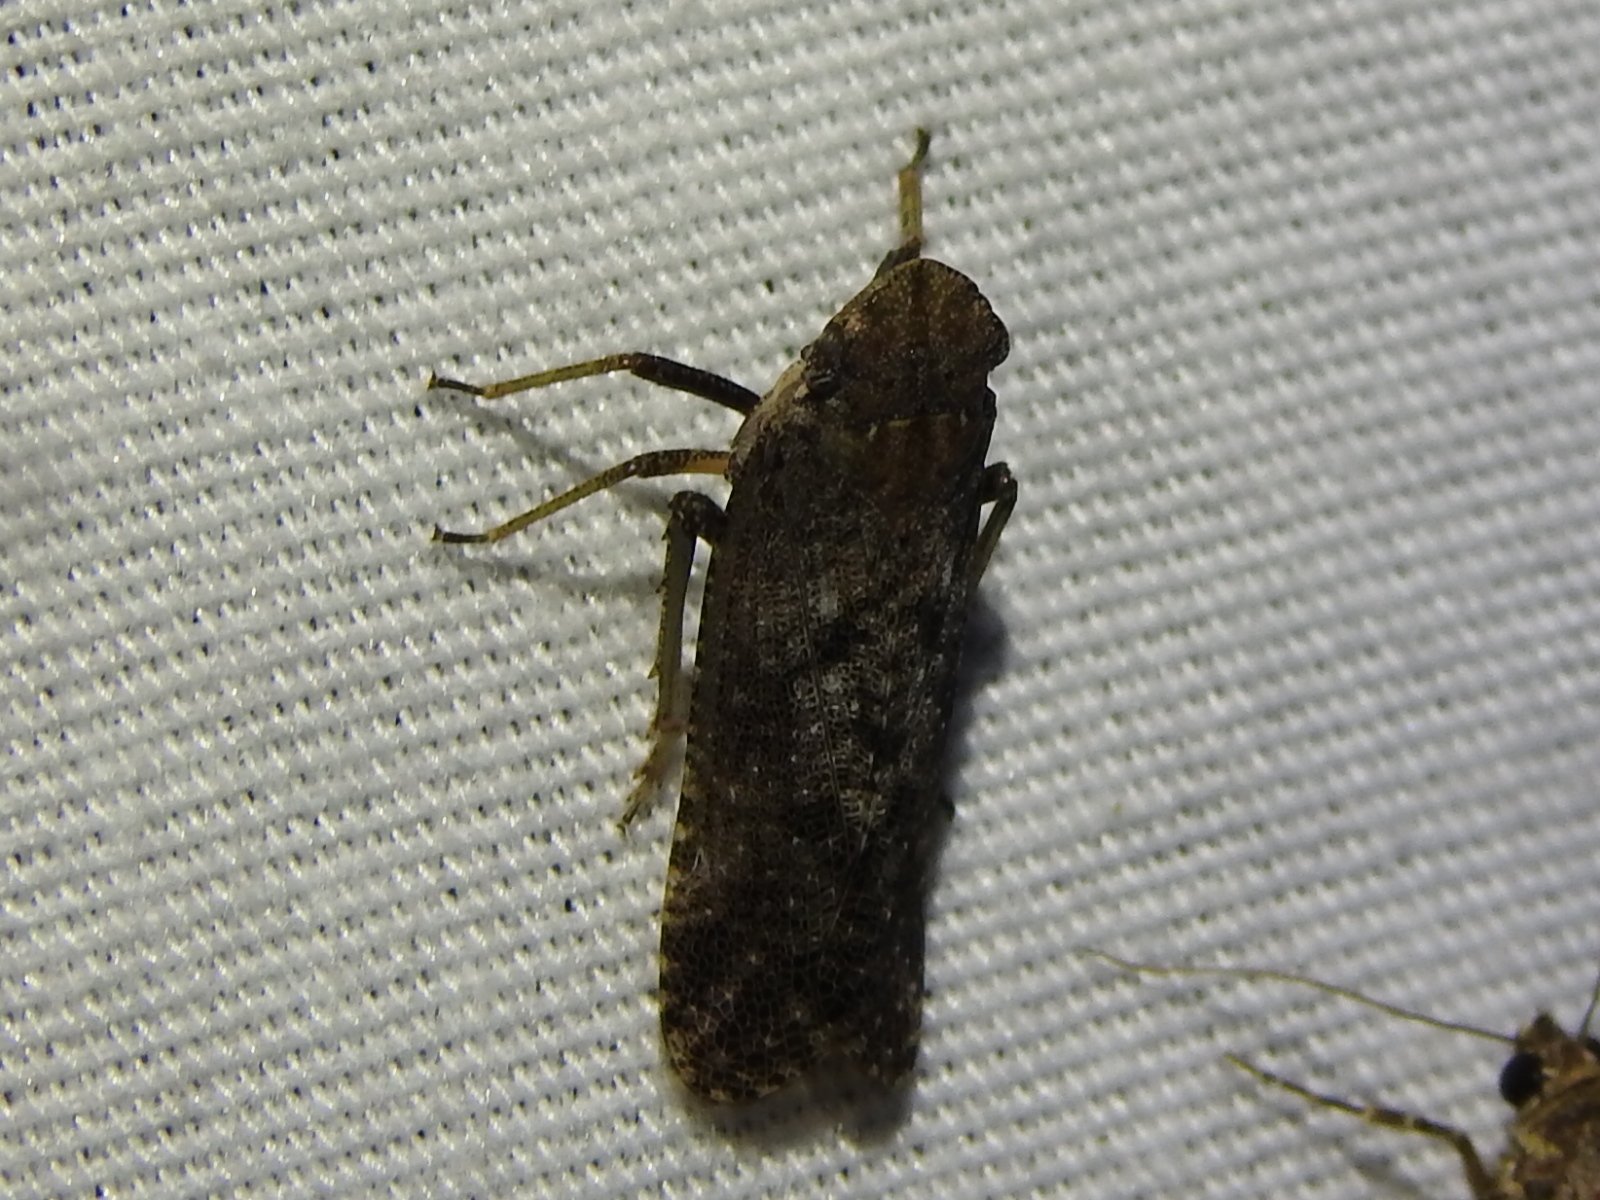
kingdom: Animalia
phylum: Arthropoda
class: Insecta
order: Hemiptera
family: Fulgoridae
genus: Cyrpoptus
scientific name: Cyrpoptus vanduzeei
